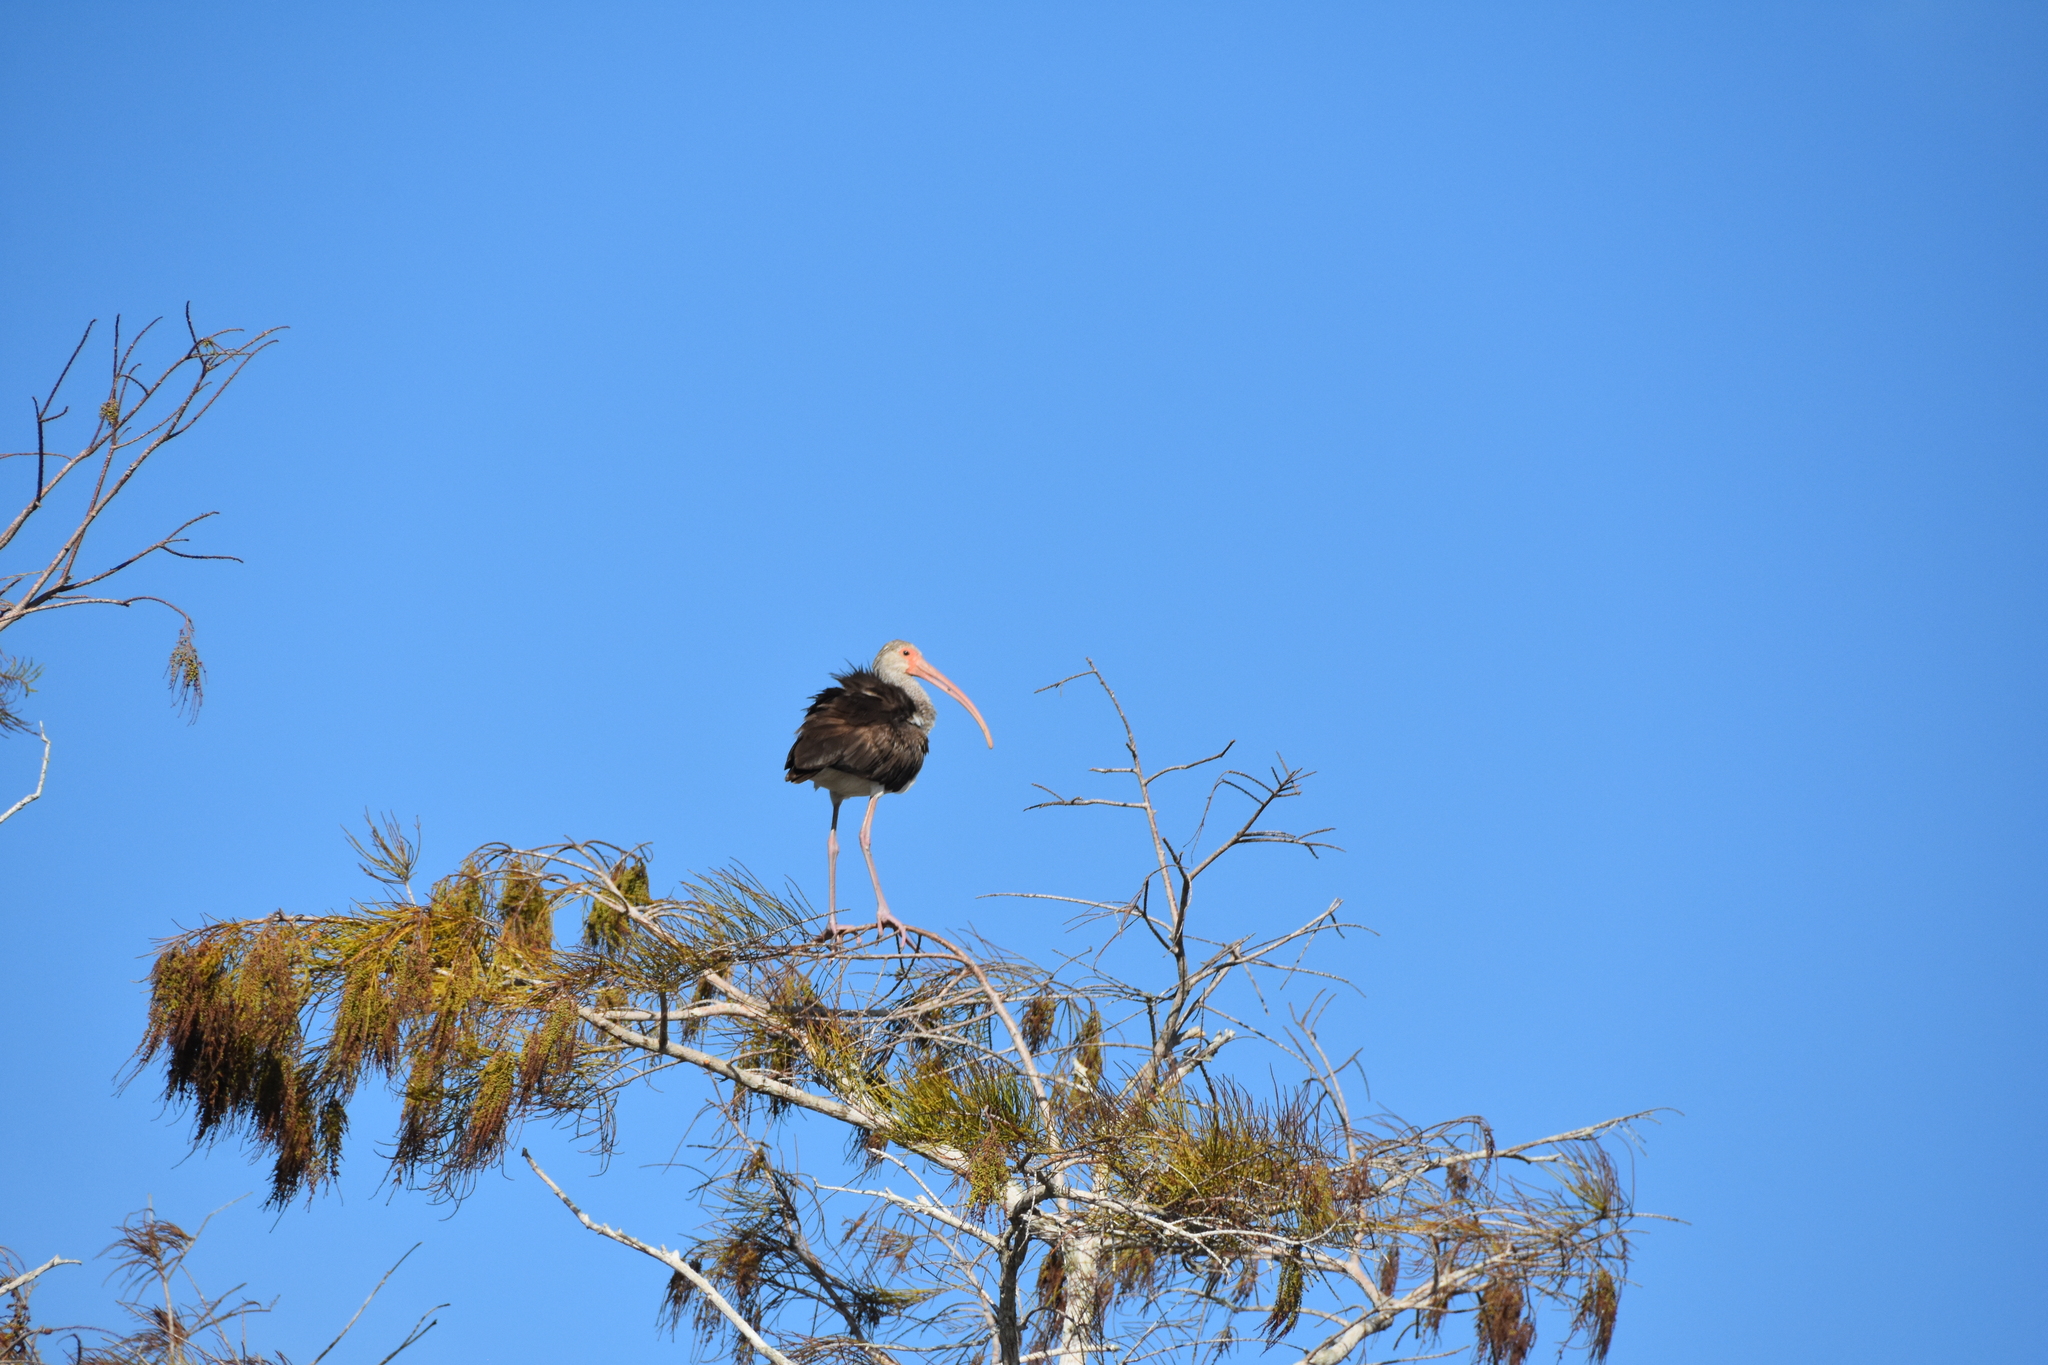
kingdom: Animalia
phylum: Chordata
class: Aves
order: Pelecaniformes
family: Threskiornithidae
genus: Eudocimus
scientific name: Eudocimus albus
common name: White ibis
